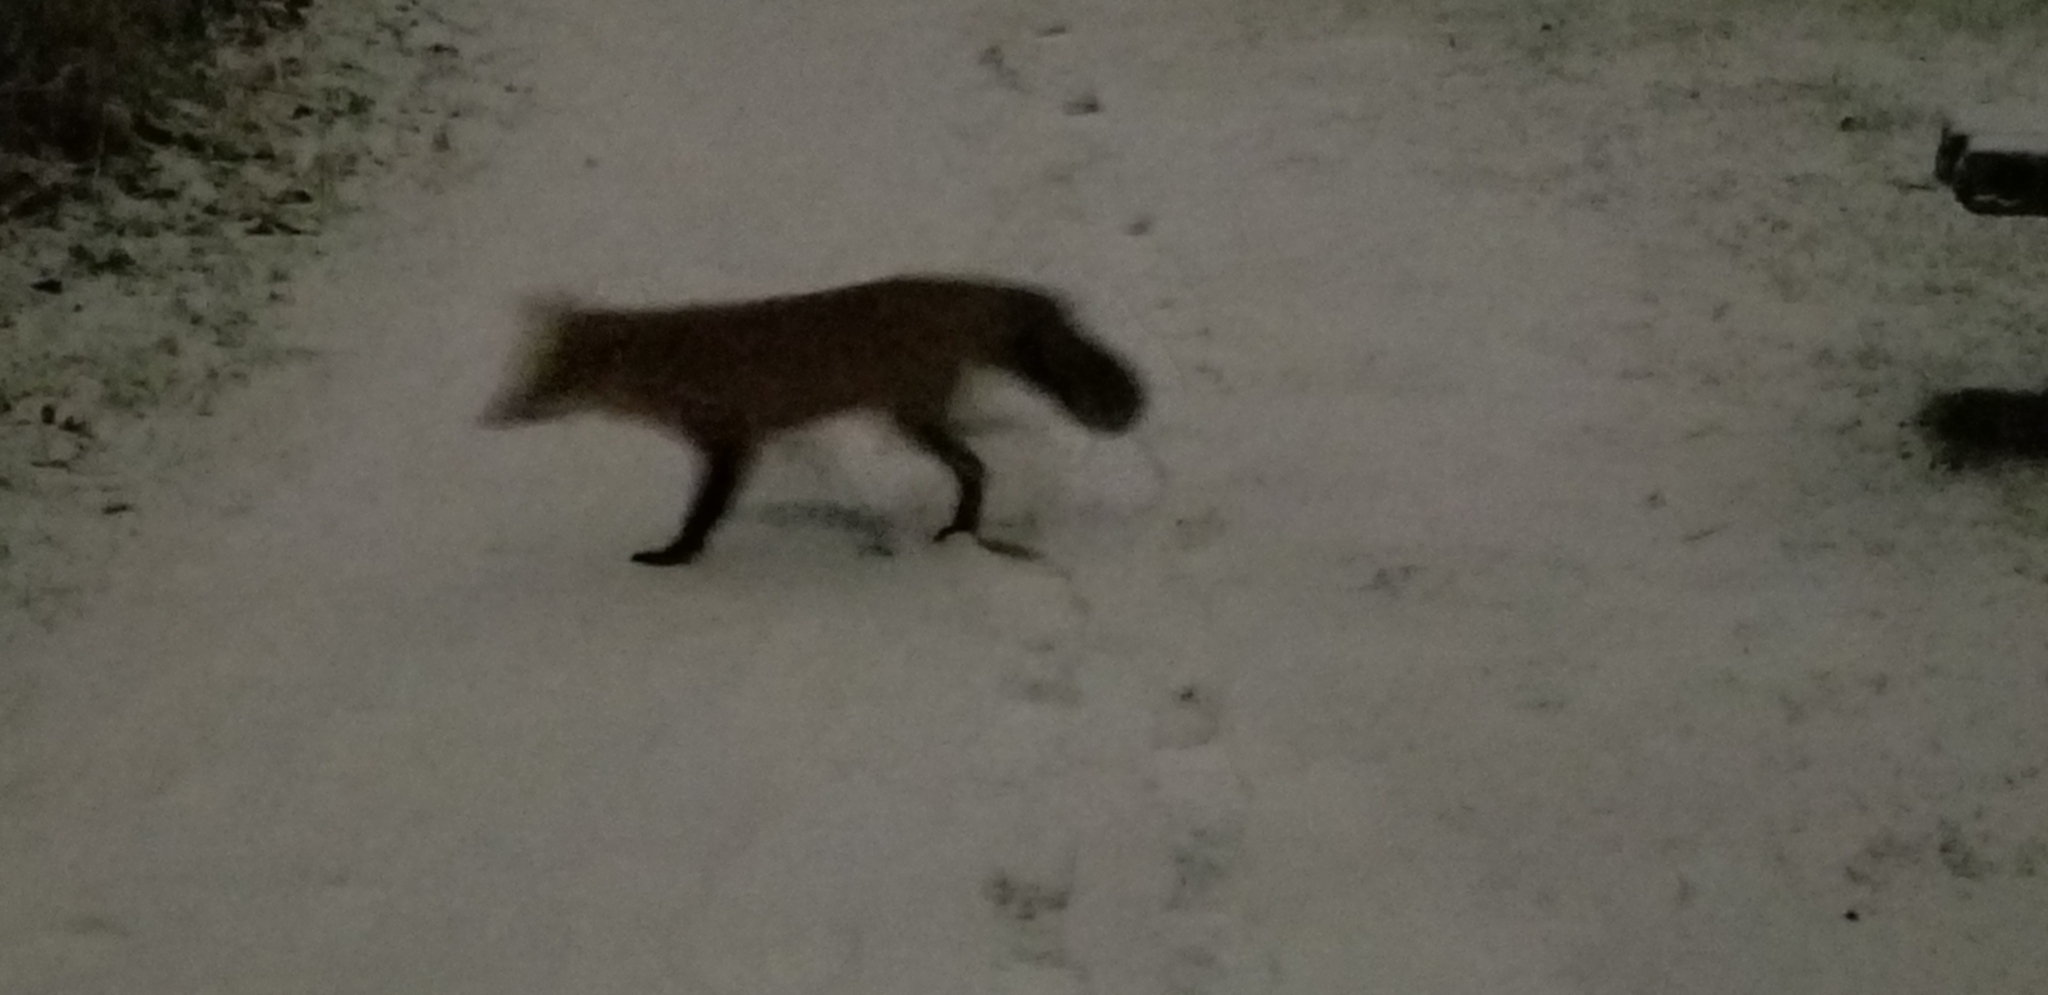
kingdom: Animalia
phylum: Chordata
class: Mammalia
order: Carnivora
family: Canidae
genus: Vulpes
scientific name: Vulpes vulpes
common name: Red fox
